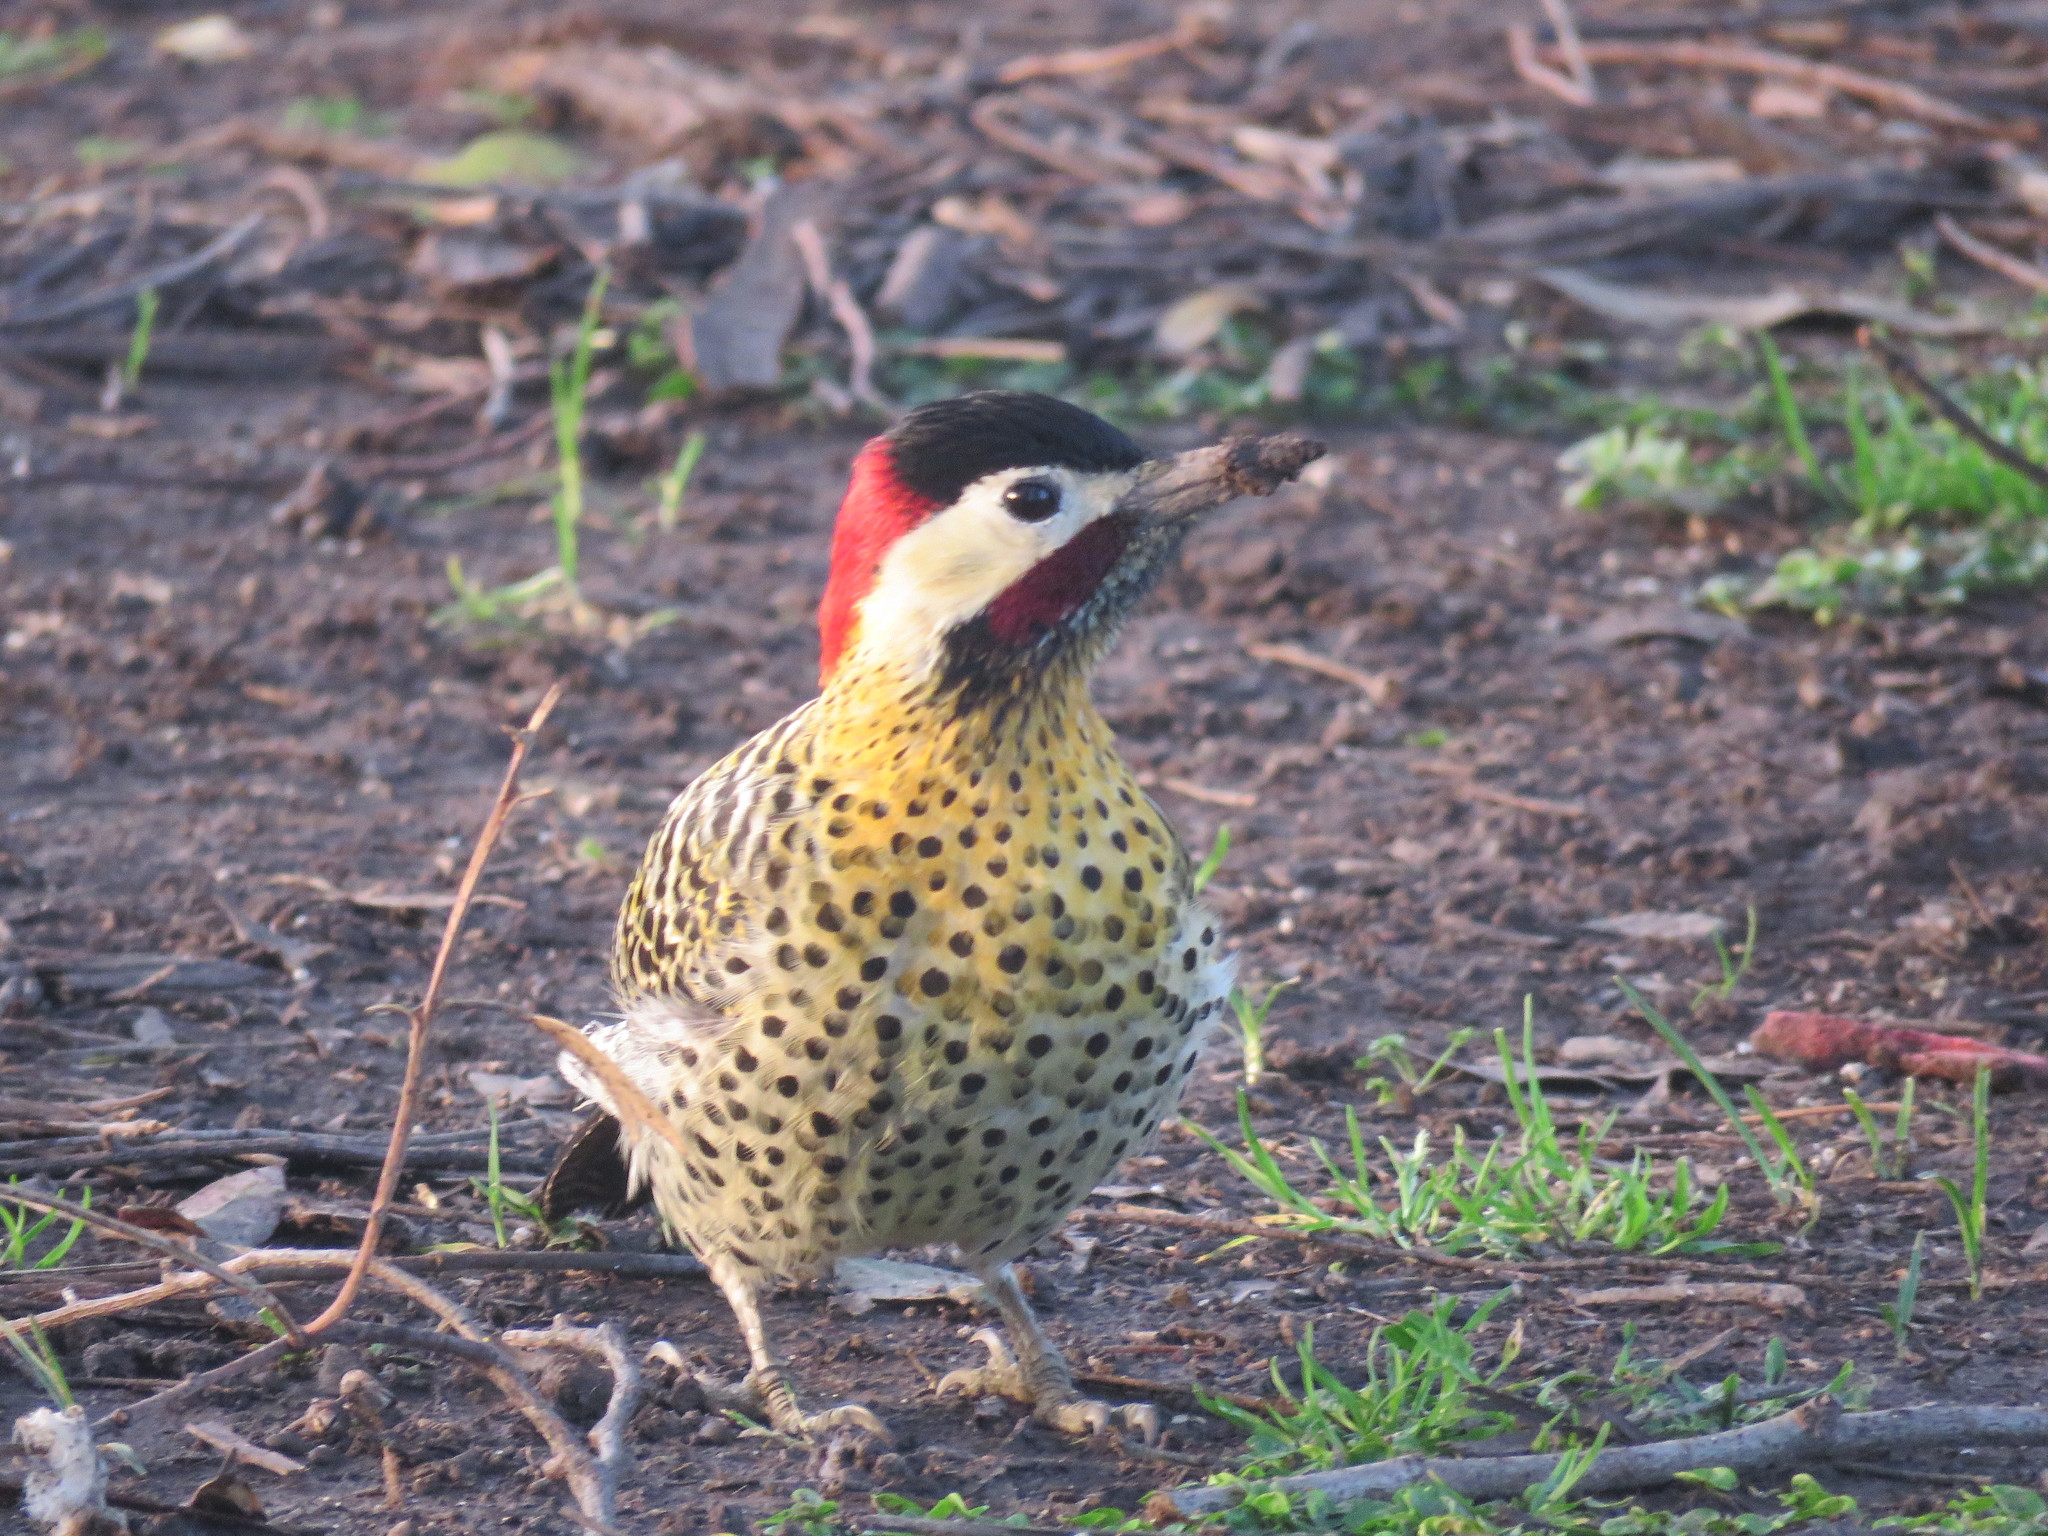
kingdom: Animalia
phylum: Chordata
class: Aves
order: Piciformes
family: Picidae
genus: Colaptes
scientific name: Colaptes melanochloros
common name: Green-barred woodpecker
